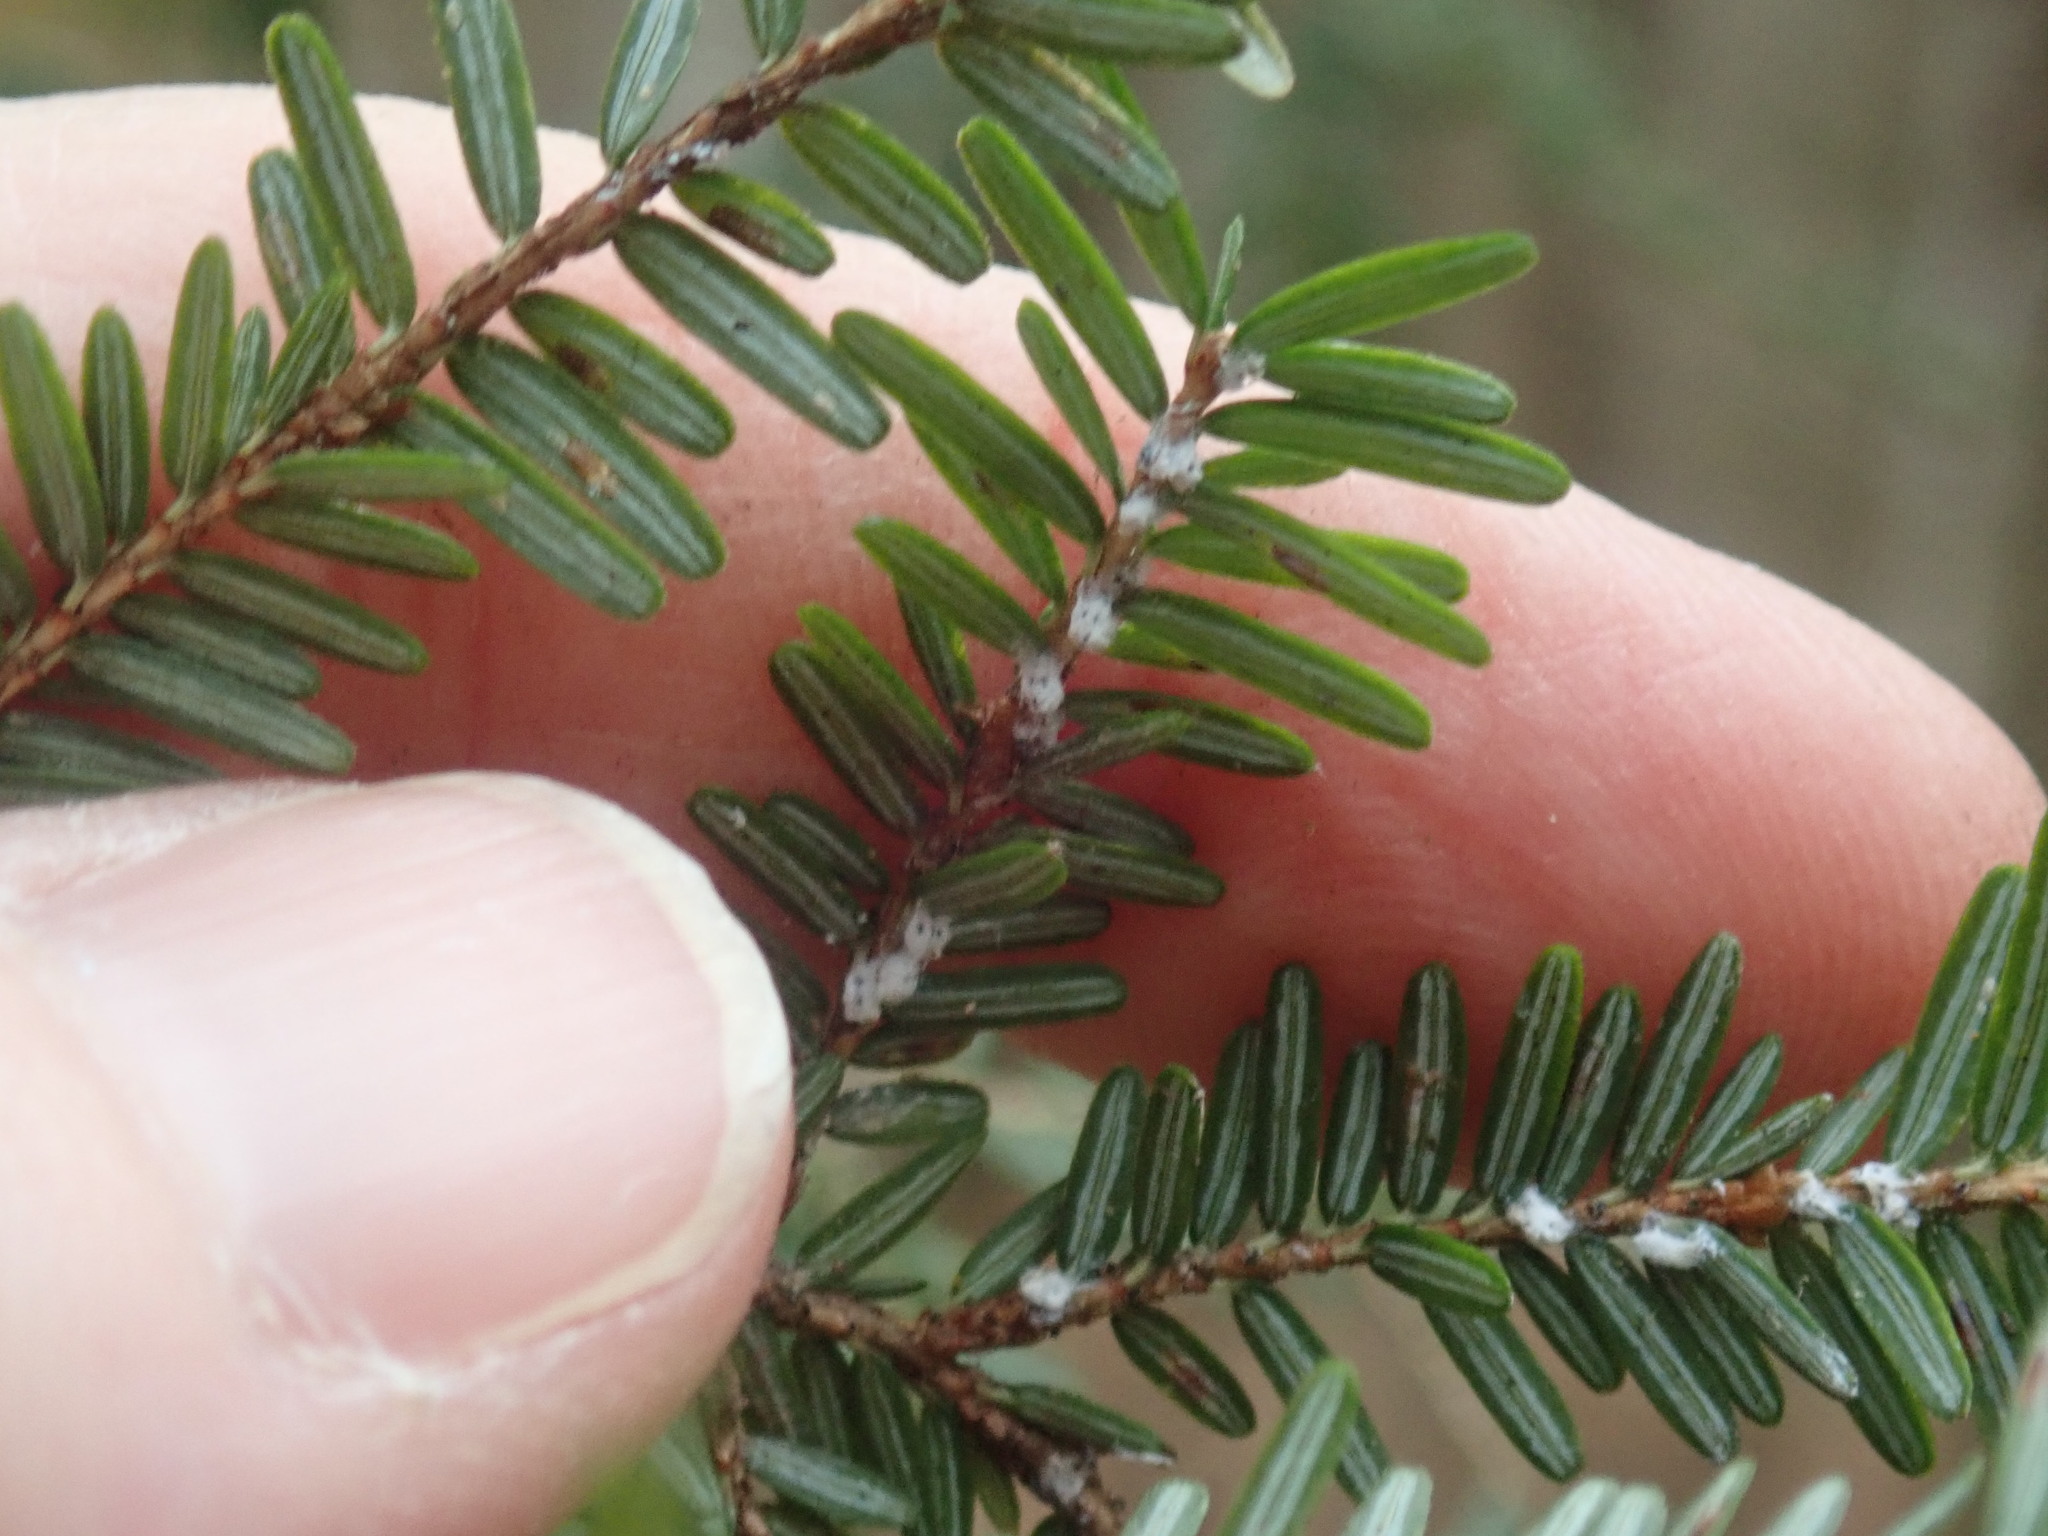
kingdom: Animalia
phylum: Arthropoda
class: Insecta
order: Hemiptera
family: Adelgidae
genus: Adelges
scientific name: Adelges tsugae
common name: Hemlock woolly adelgid
